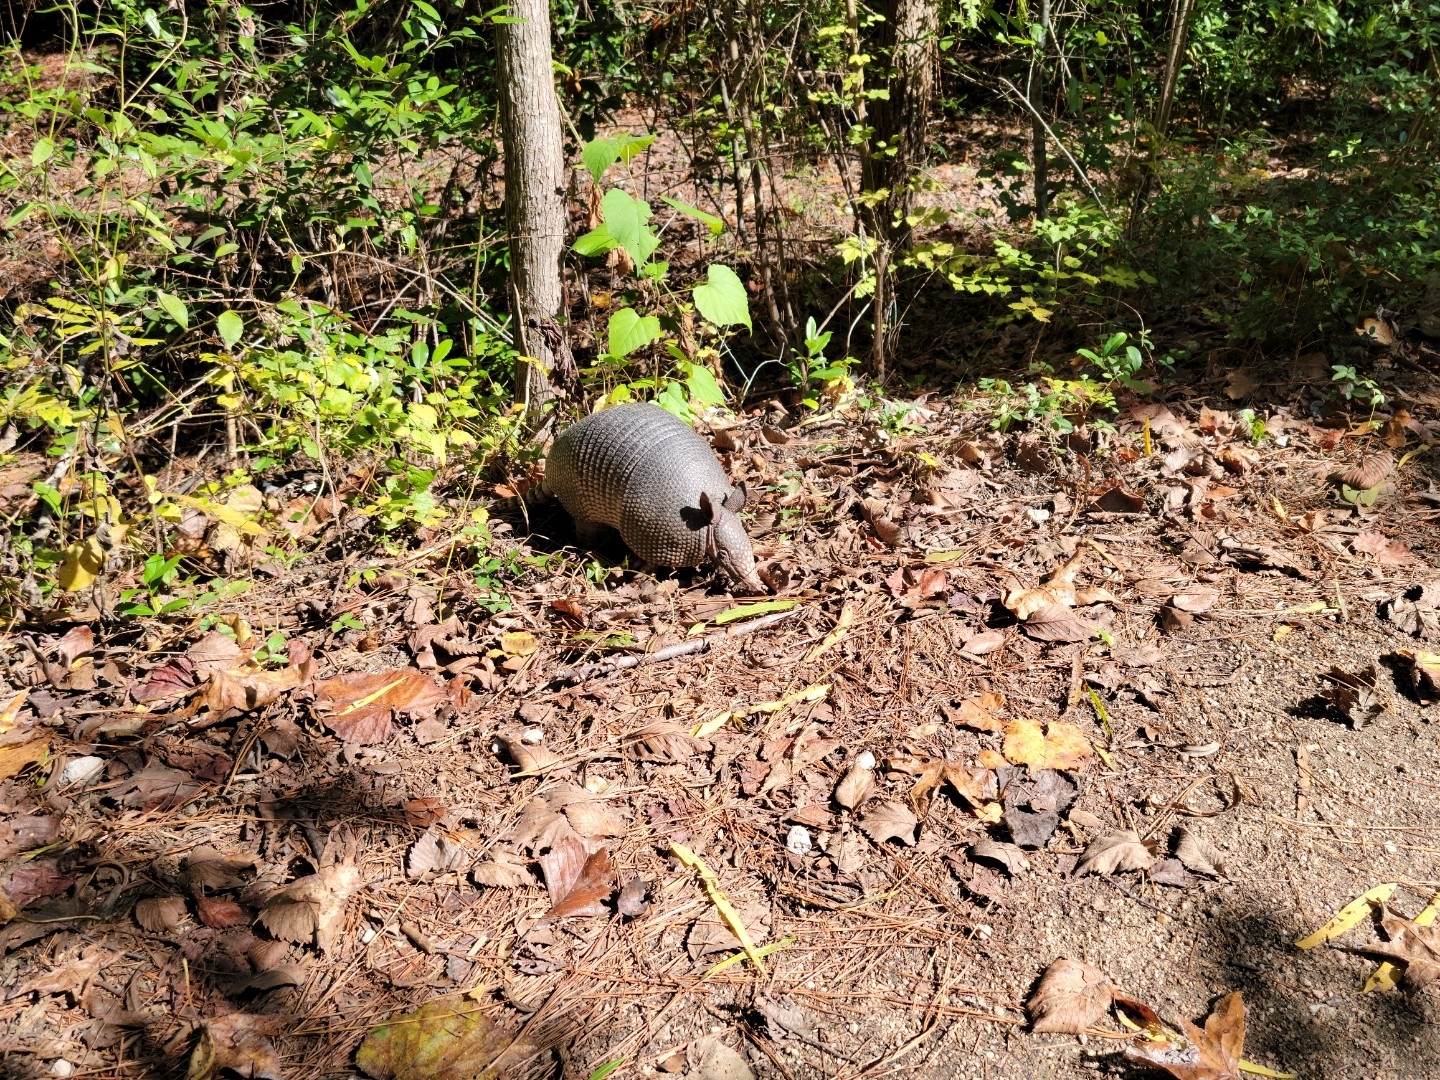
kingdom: Animalia
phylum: Chordata
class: Mammalia
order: Cingulata
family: Dasypodidae
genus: Dasypus
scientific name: Dasypus novemcinctus
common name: Nine-banded armadillo
